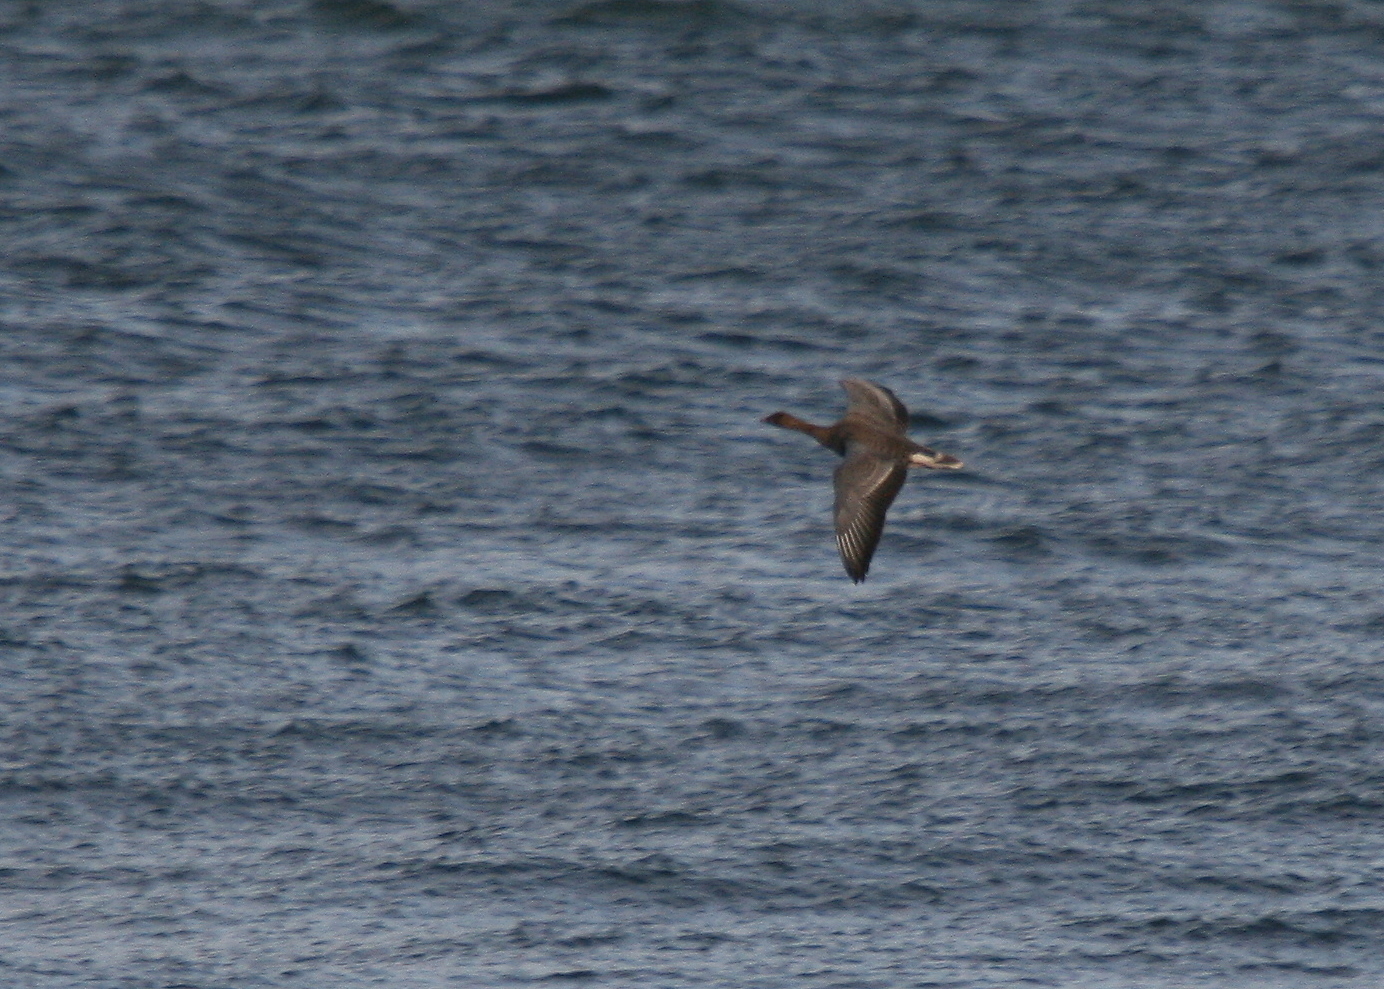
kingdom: Animalia
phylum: Chordata
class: Aves
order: Anseriformes
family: Anatidae
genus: Anser
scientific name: Anser brachyrhynchus
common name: Pink-footed goose
